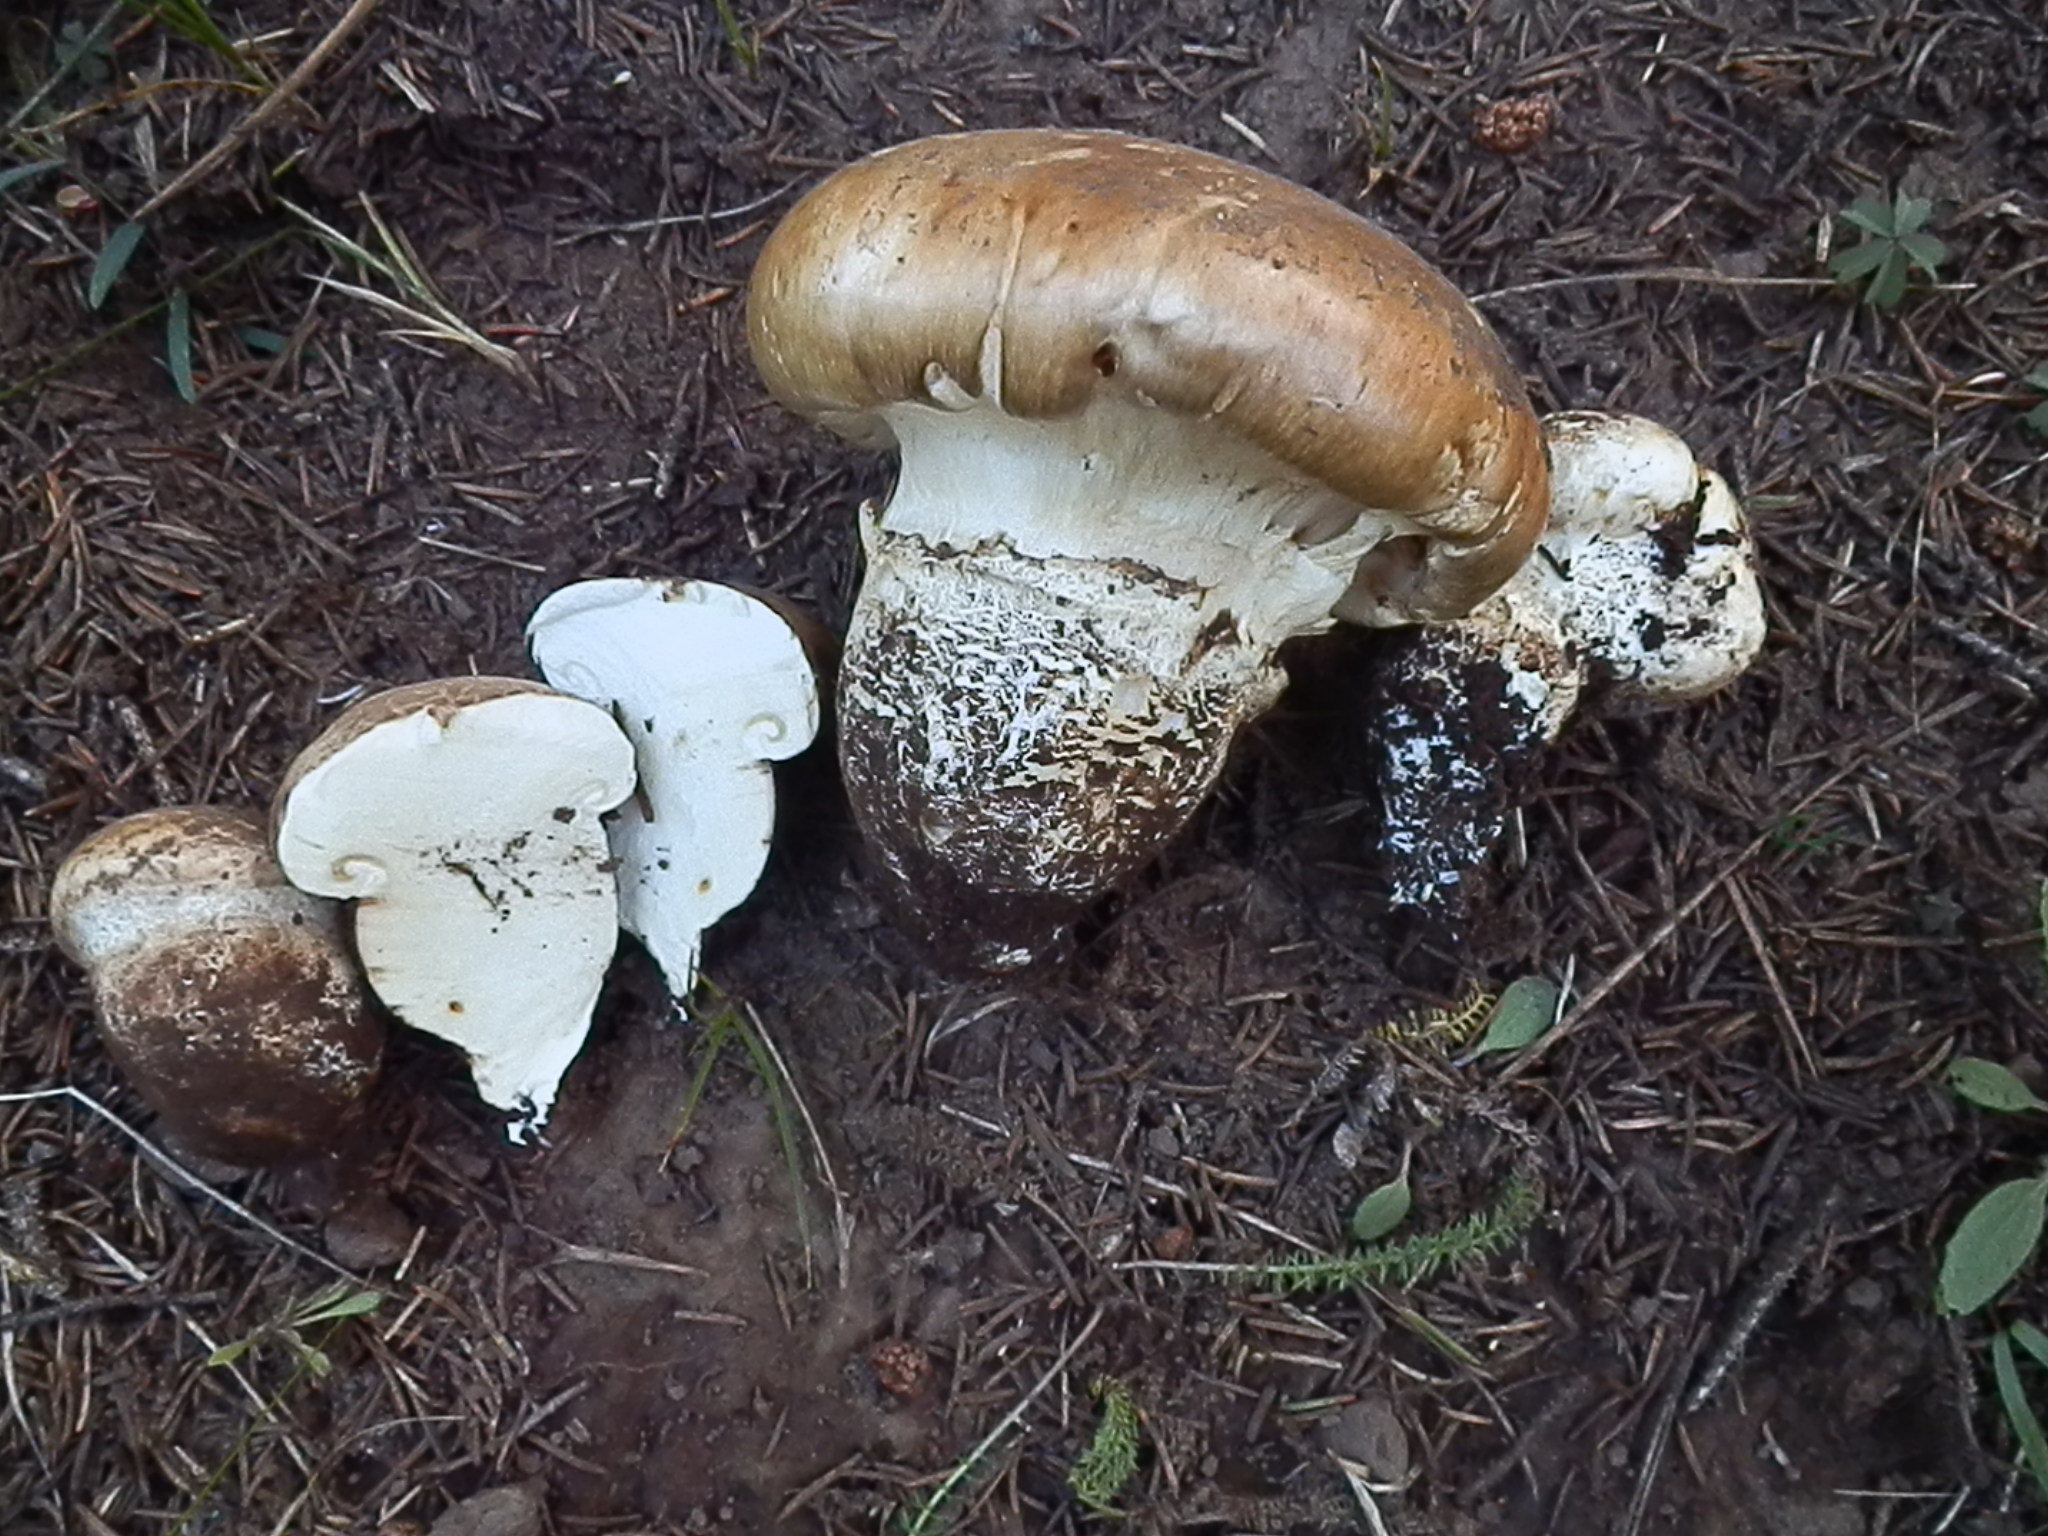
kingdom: Fungi
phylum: Basidiomycota
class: Agaricomycetes
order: Agaricales
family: Biannulariaceae
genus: Catathelasma
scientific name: Catathelasma singeri
